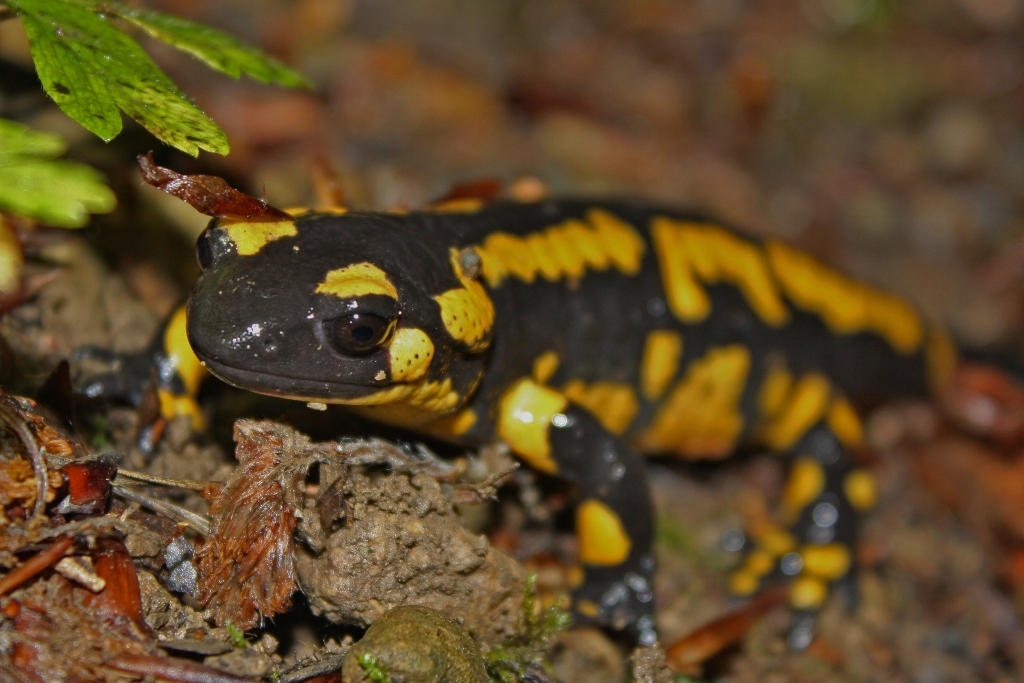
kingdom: Animalia
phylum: Chordata
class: Amphibia
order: Caudata
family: Salamandridae
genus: Salamandra
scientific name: Salamandra salamandra
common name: Fire salamander
